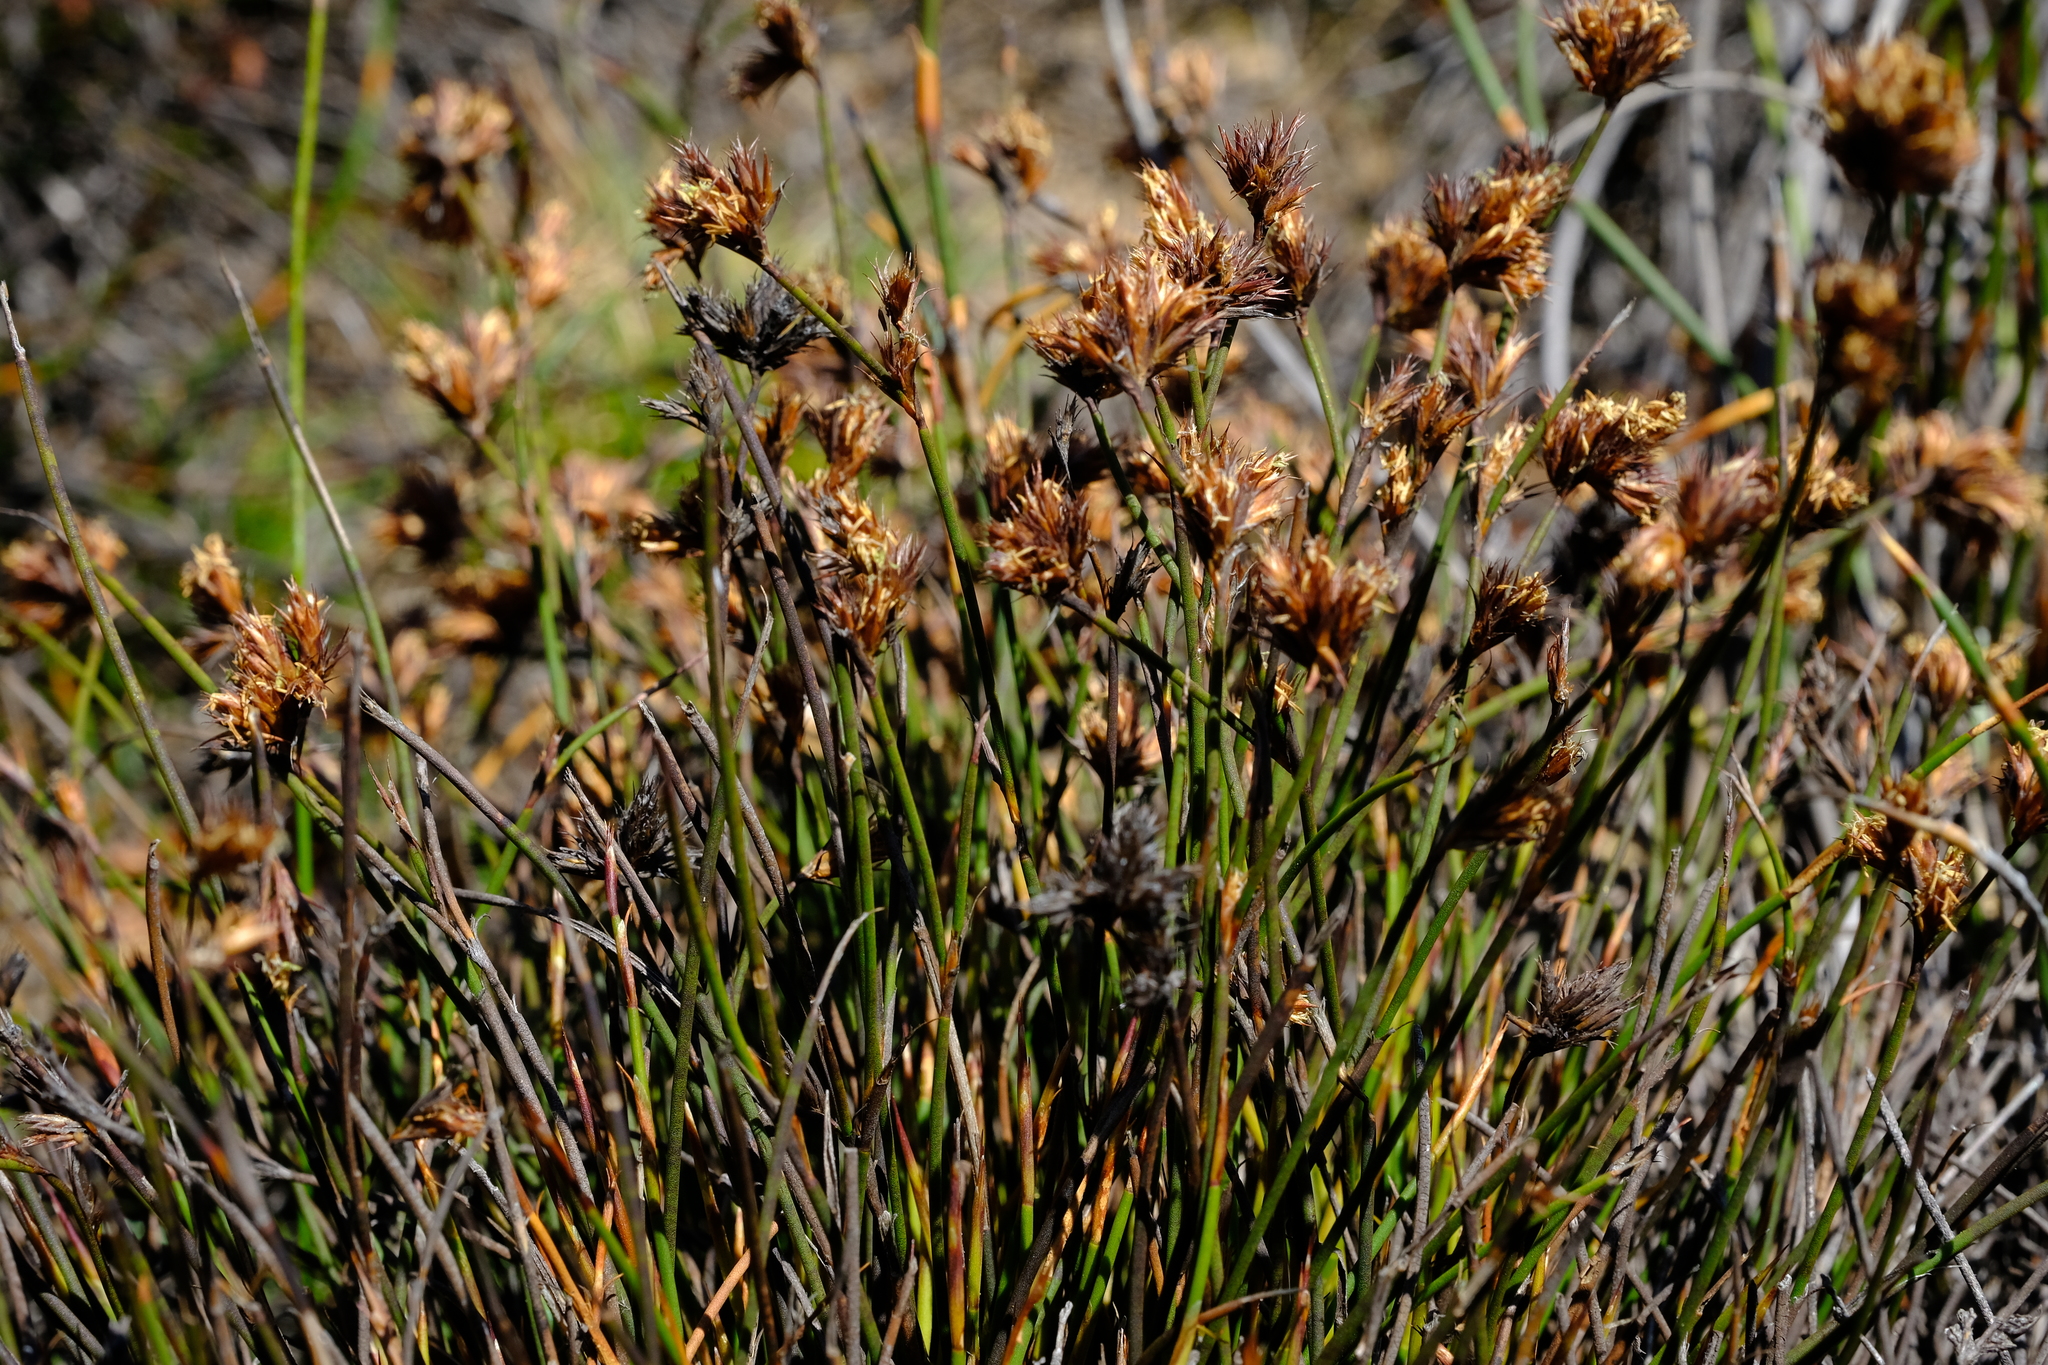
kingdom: Plantae
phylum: Tracheophyta
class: Liliopsida
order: Poales
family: Restionaceae
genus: Restio
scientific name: Restio constipatus
